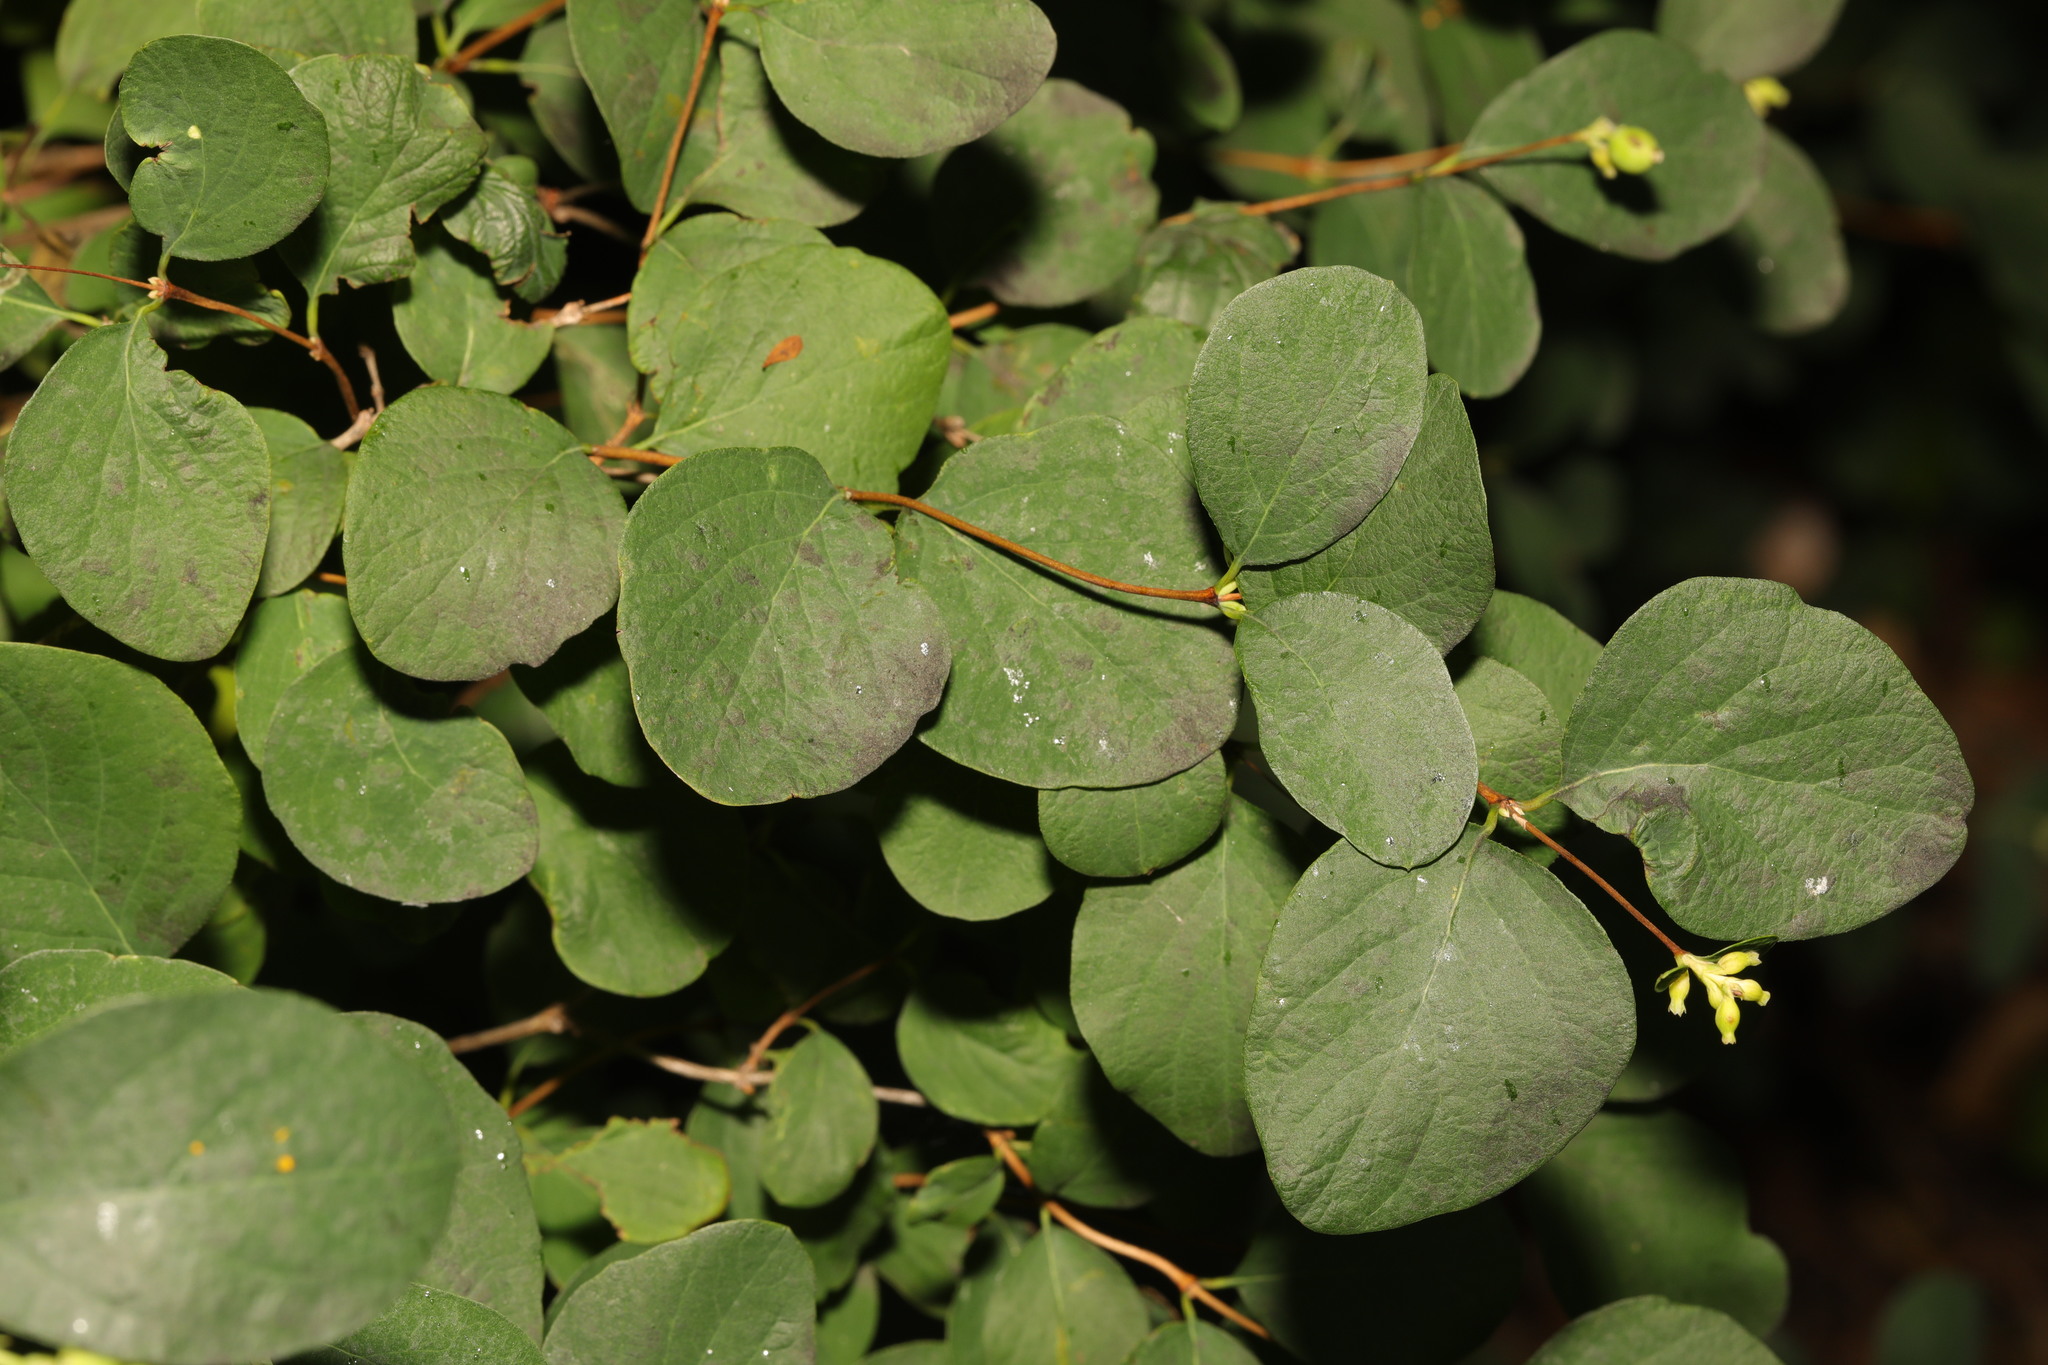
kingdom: Plantae
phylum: Tracheophyta
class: Magnoliopsida
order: Dipsacales
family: Caprifoliaceae
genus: Symphoricarpos
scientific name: Symphoricarpos albus
